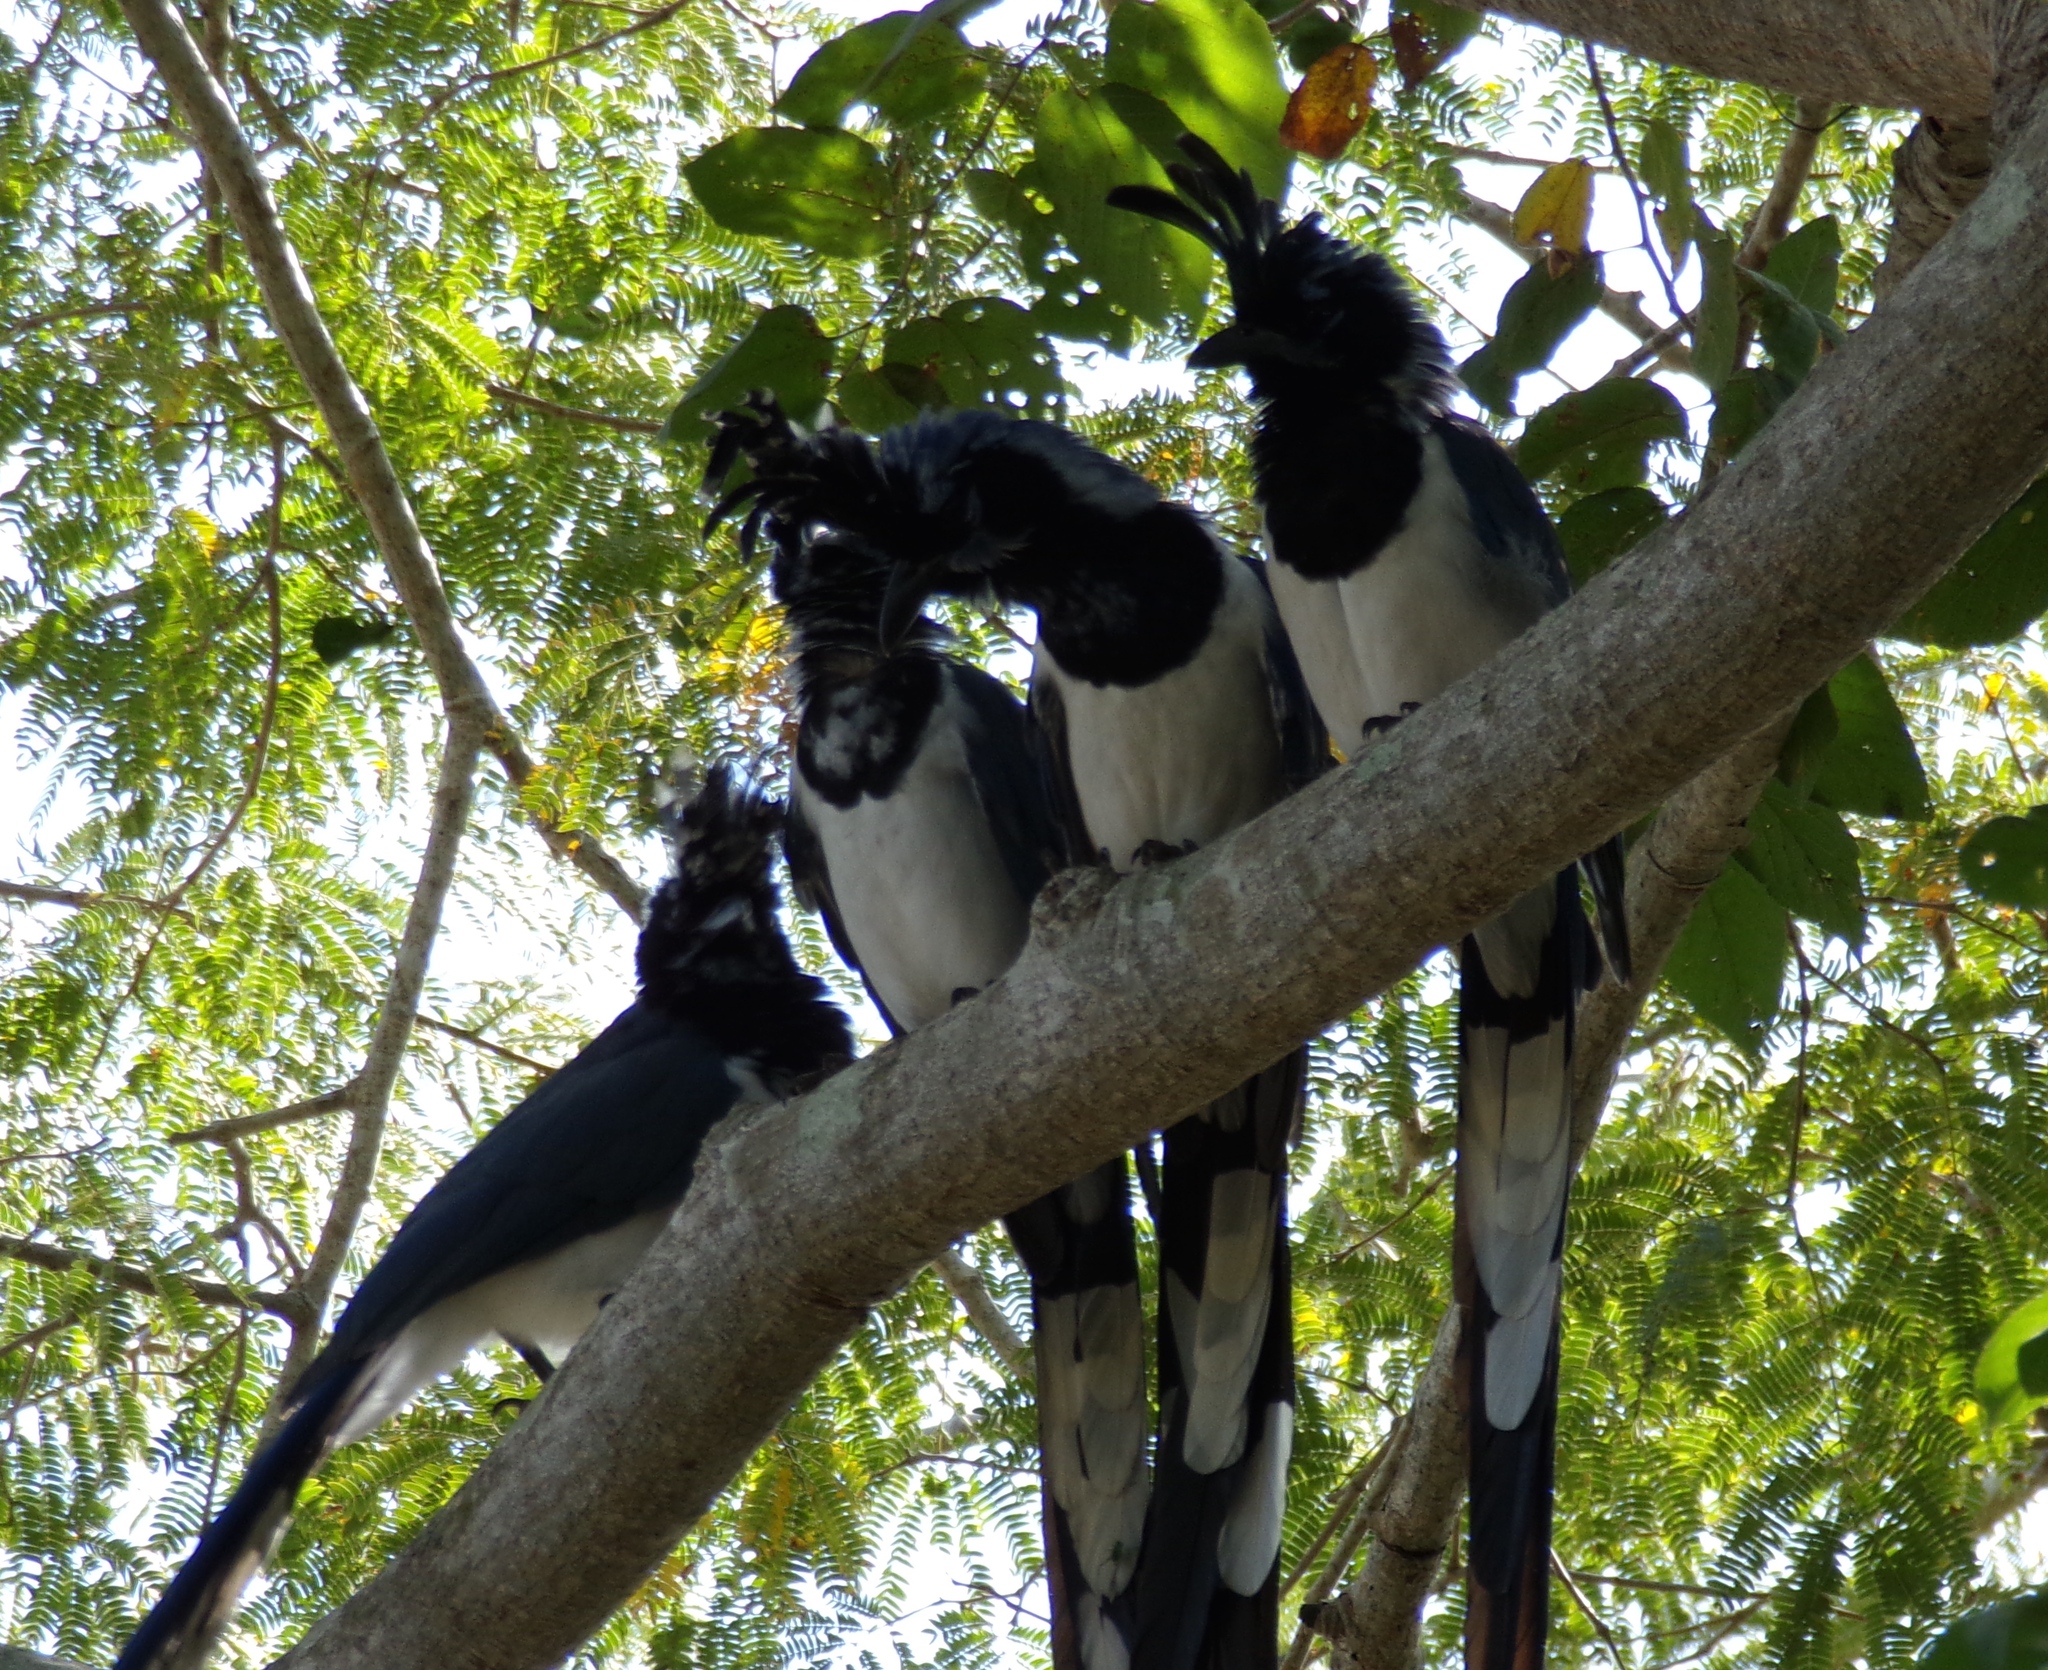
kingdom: Animalia
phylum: Chordata
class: Aves
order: Passeriformes
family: Corvidae
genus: Calocitta
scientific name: Calocitta colliei
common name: Black-throated magpie-jay
